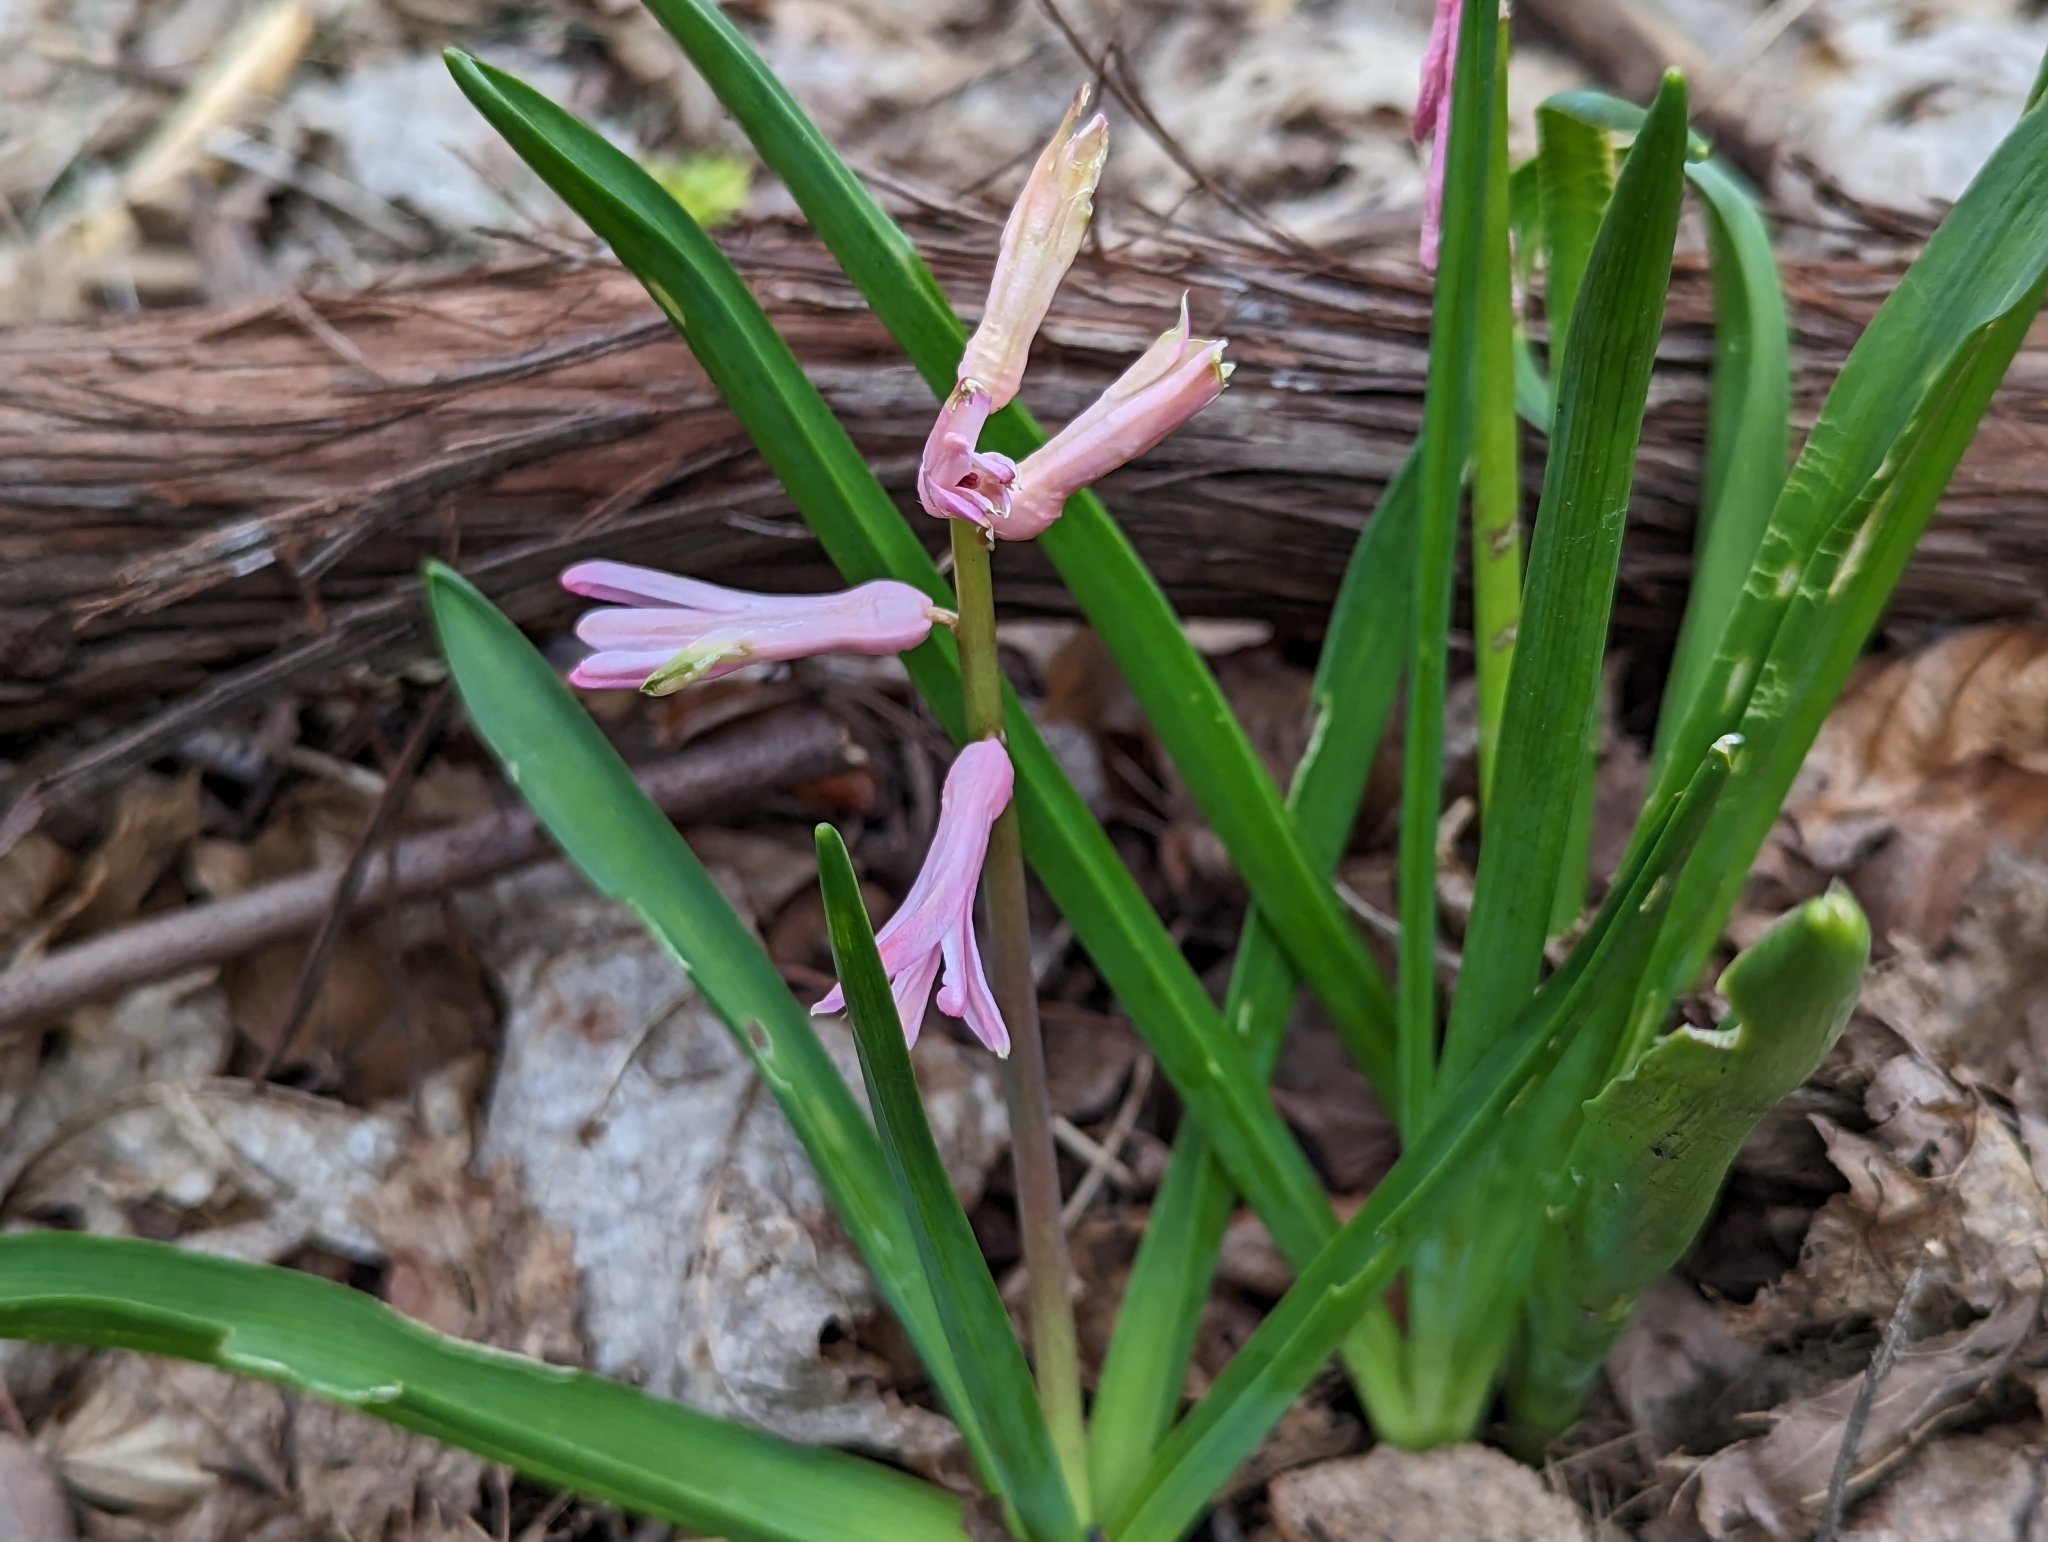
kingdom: Plantae
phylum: Tracheophyta
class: Liliopsida
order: Asparagales
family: Asparagaceae
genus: Hyacinthus
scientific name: Hyacinthus orientalis
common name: Hyacinth
